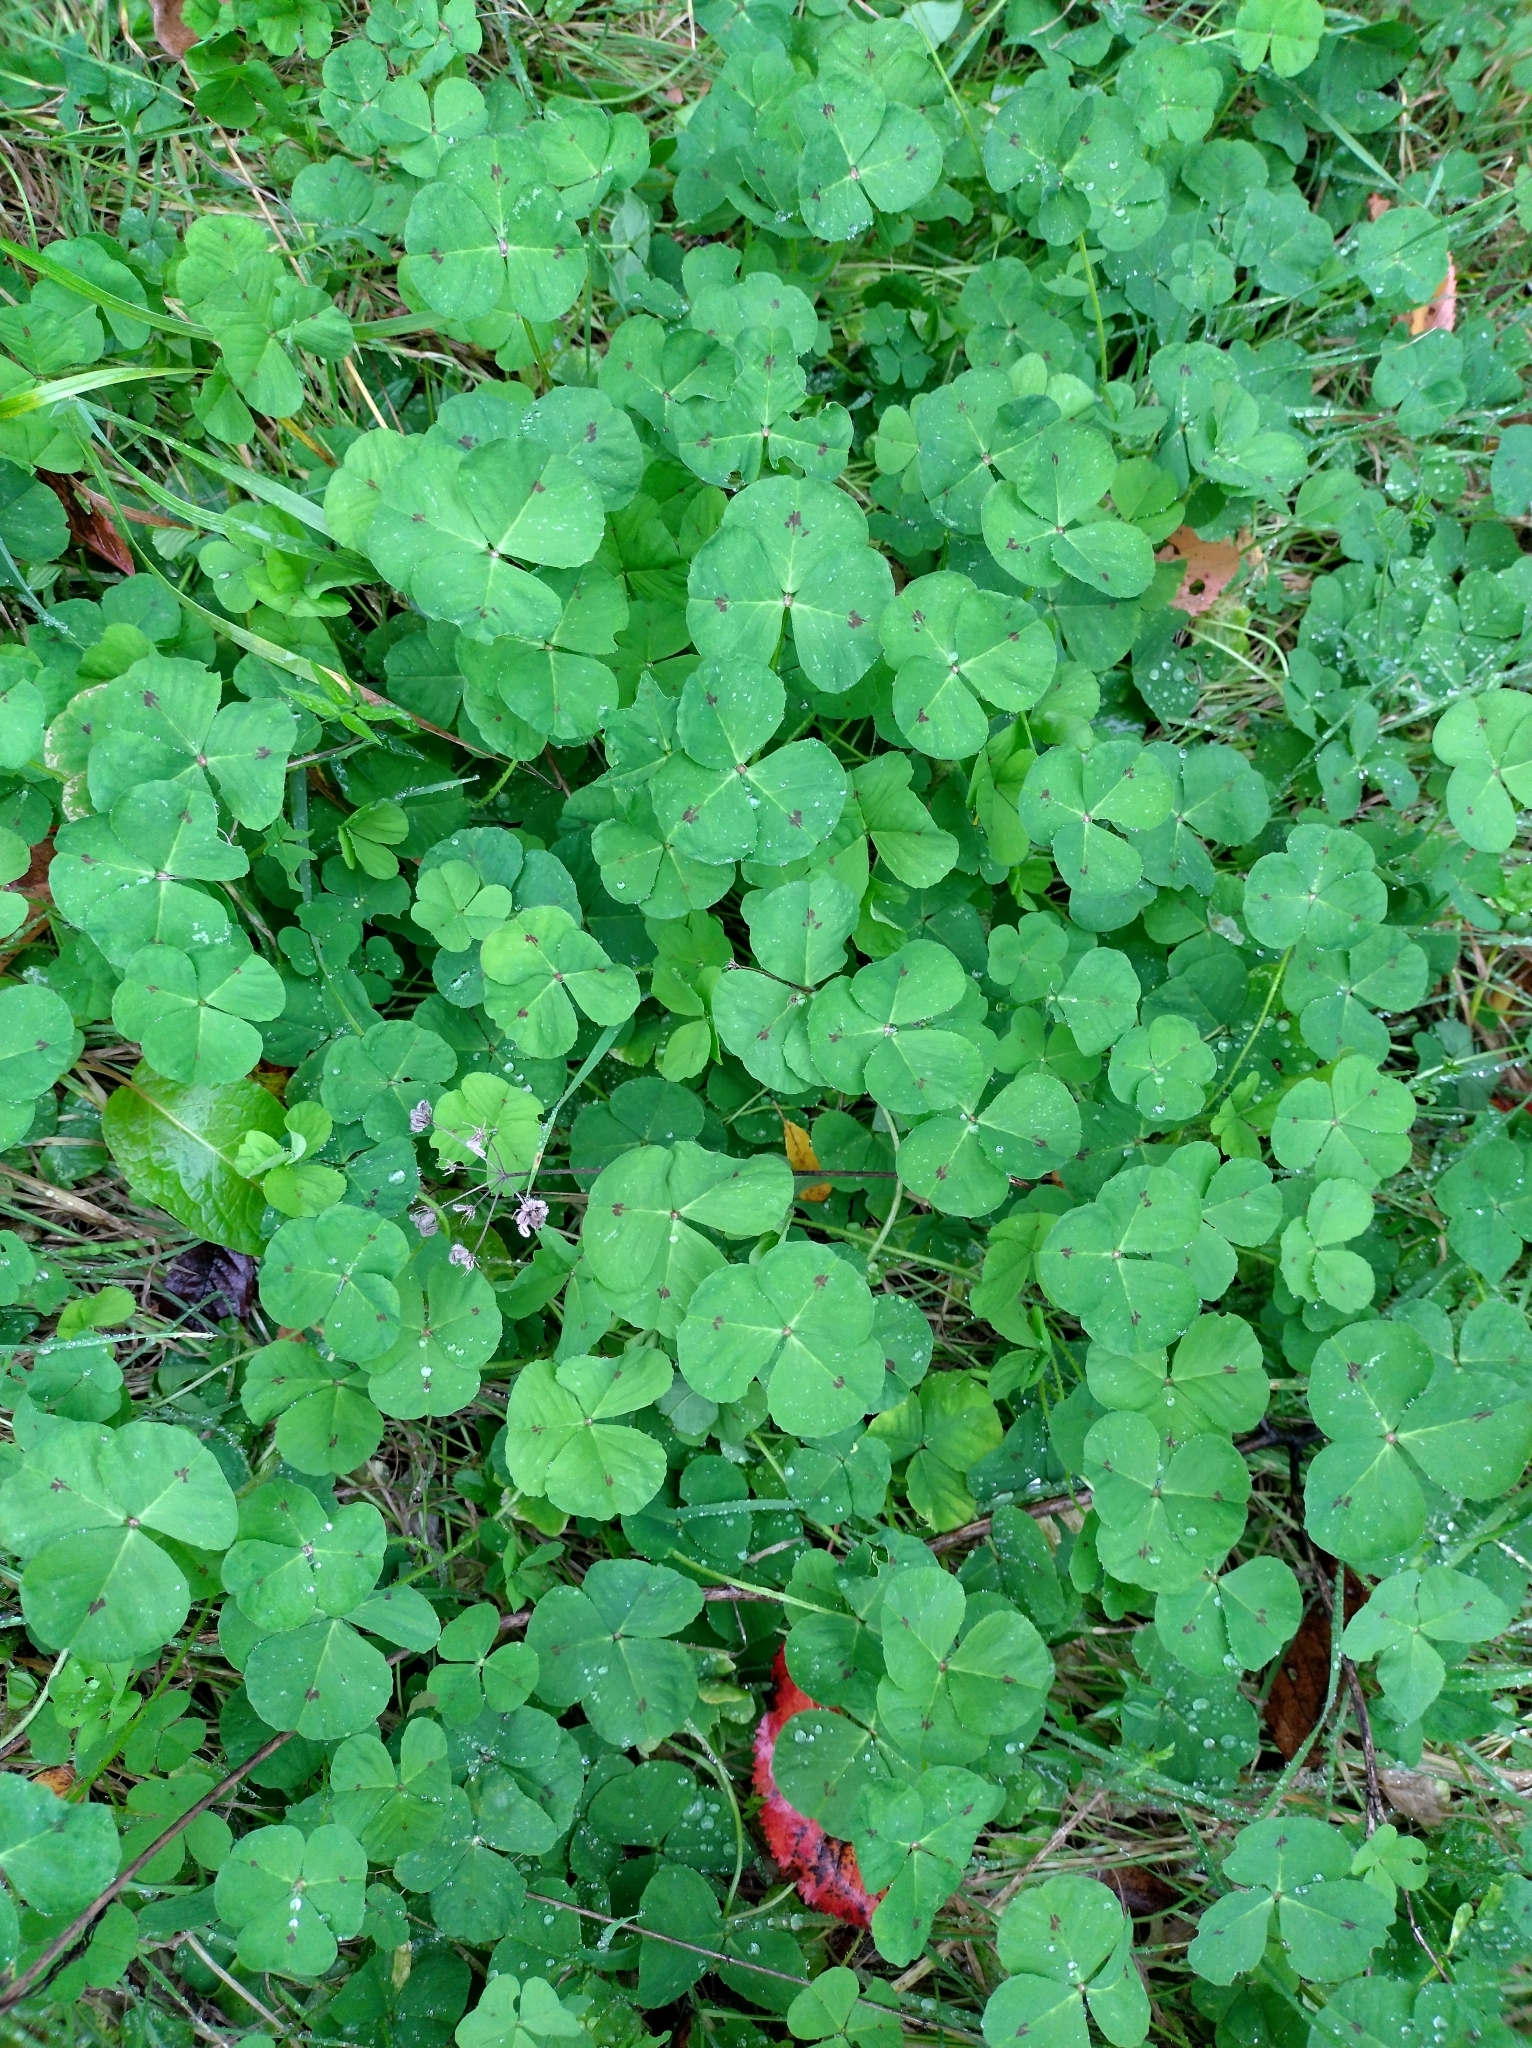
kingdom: Plantae
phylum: Tracheophyta
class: Magnoliopsida
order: Fabales
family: Fabaceae
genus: Medicago
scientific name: Medicago arabica
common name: Spotted medick
